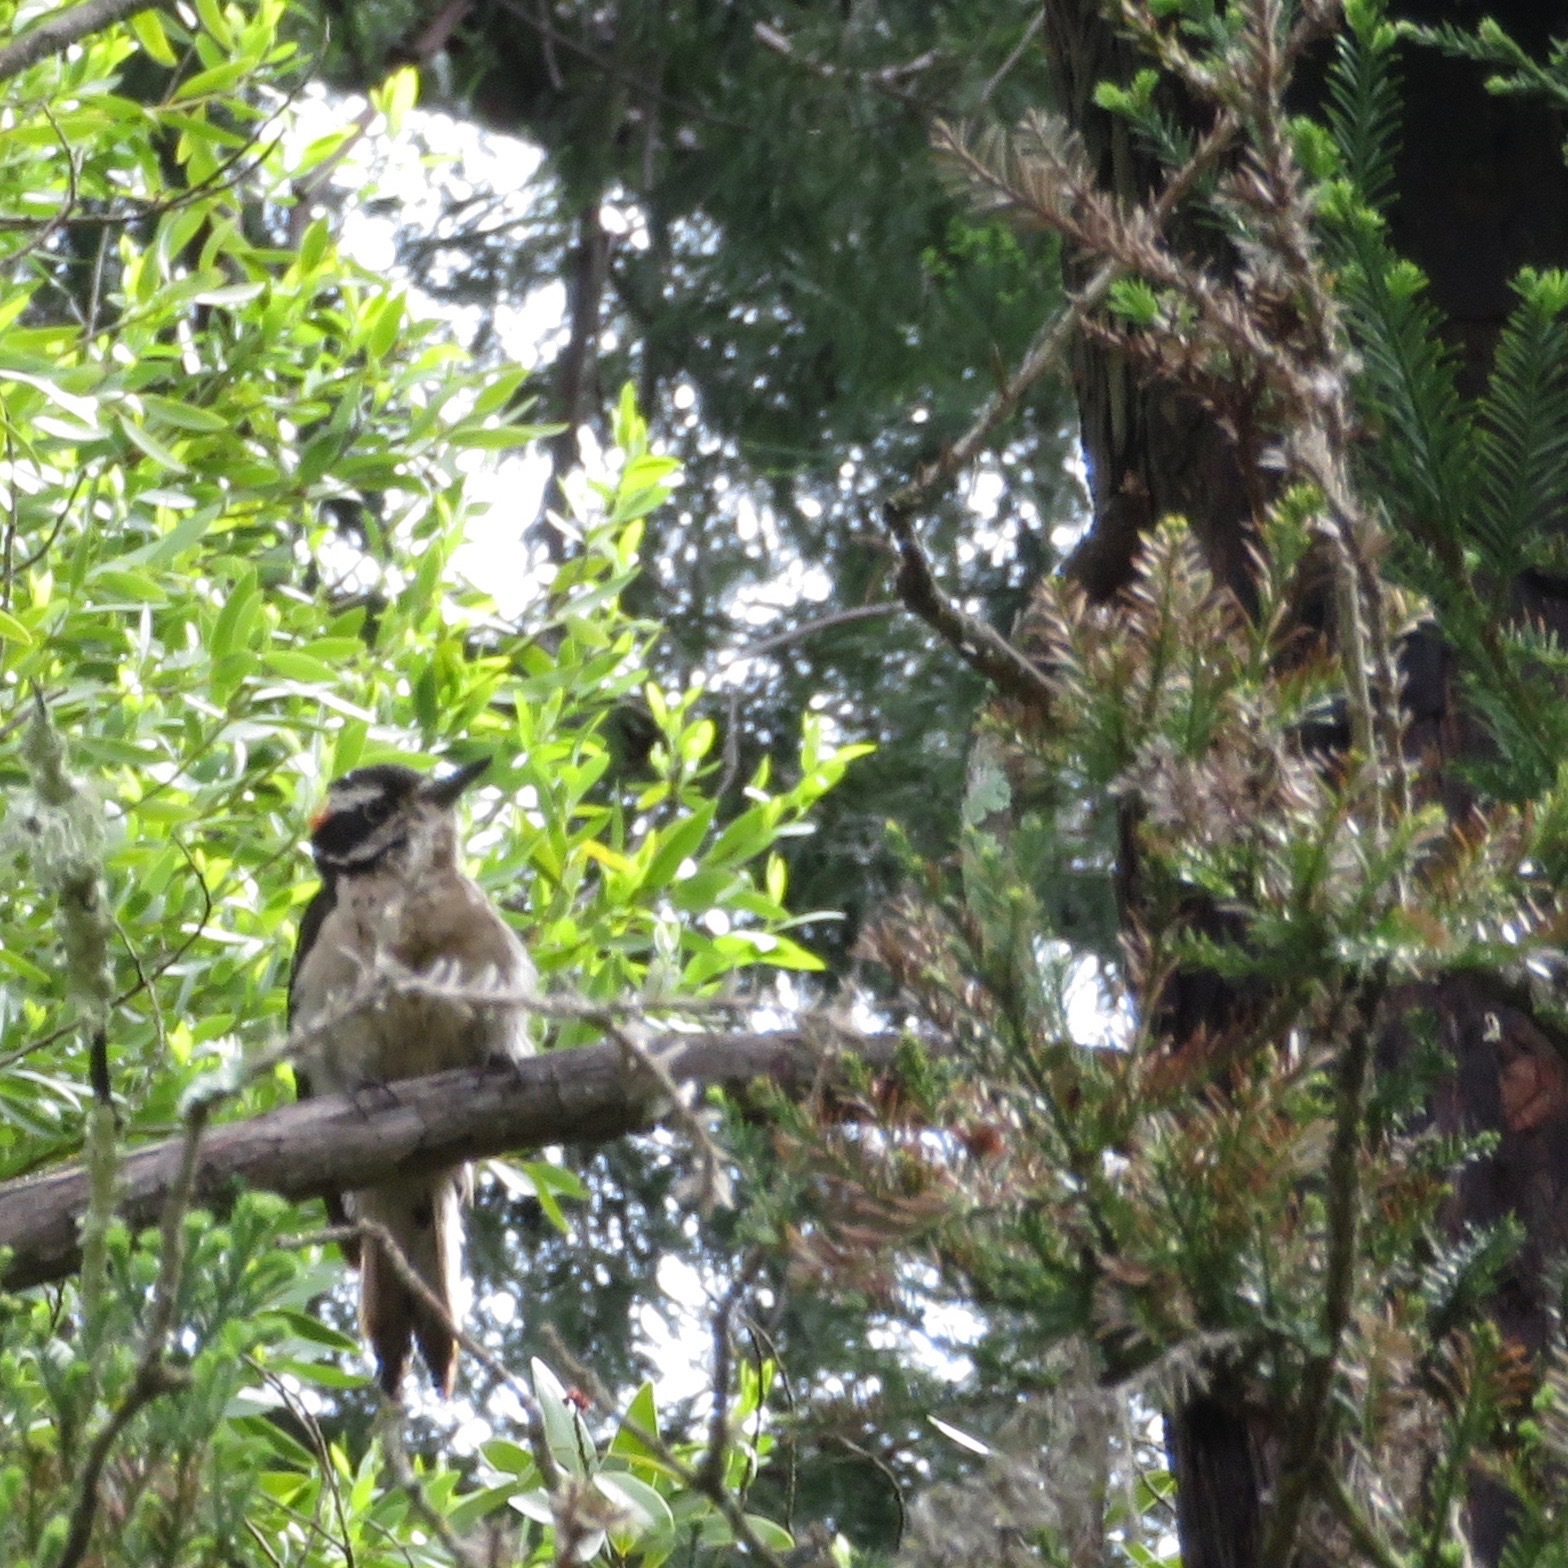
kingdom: Animalia
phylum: Chordata
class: Aves
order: Piciformes
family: Picidae
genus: Leuconotopicus
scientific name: Leuconotopicus villosus
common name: Hairy woodpecker
